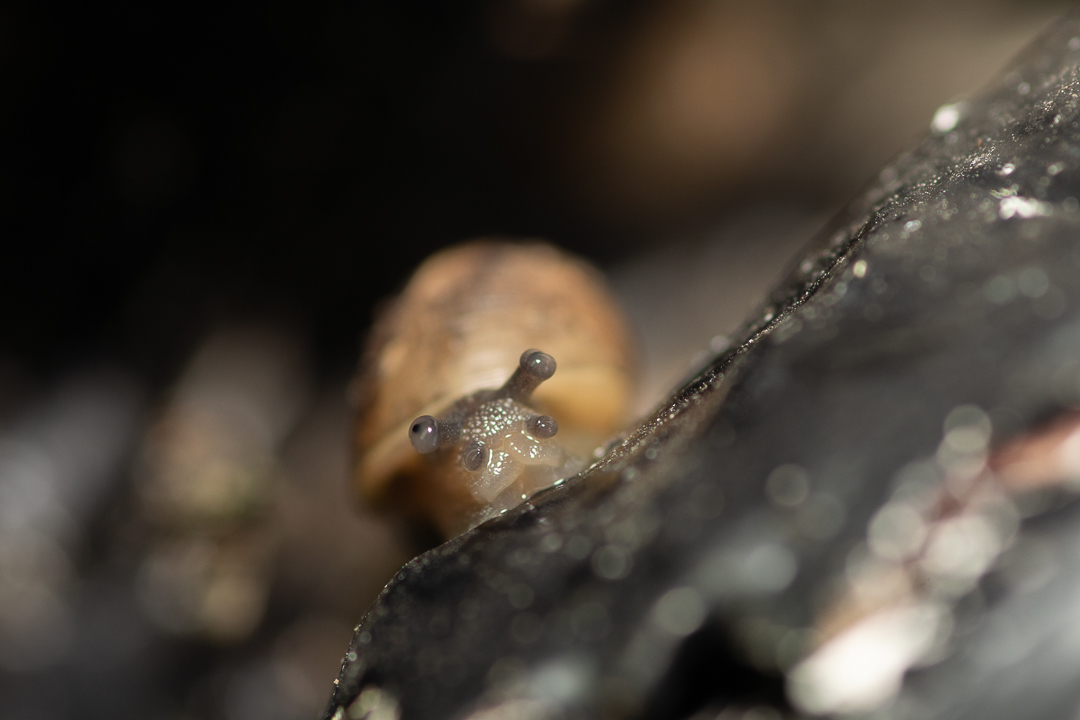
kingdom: Animalia
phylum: Mollusca
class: Gastropoda
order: Stylommatophora
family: Helicidae
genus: Cornu
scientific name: Cornu aspersum
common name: Brown garden snail
